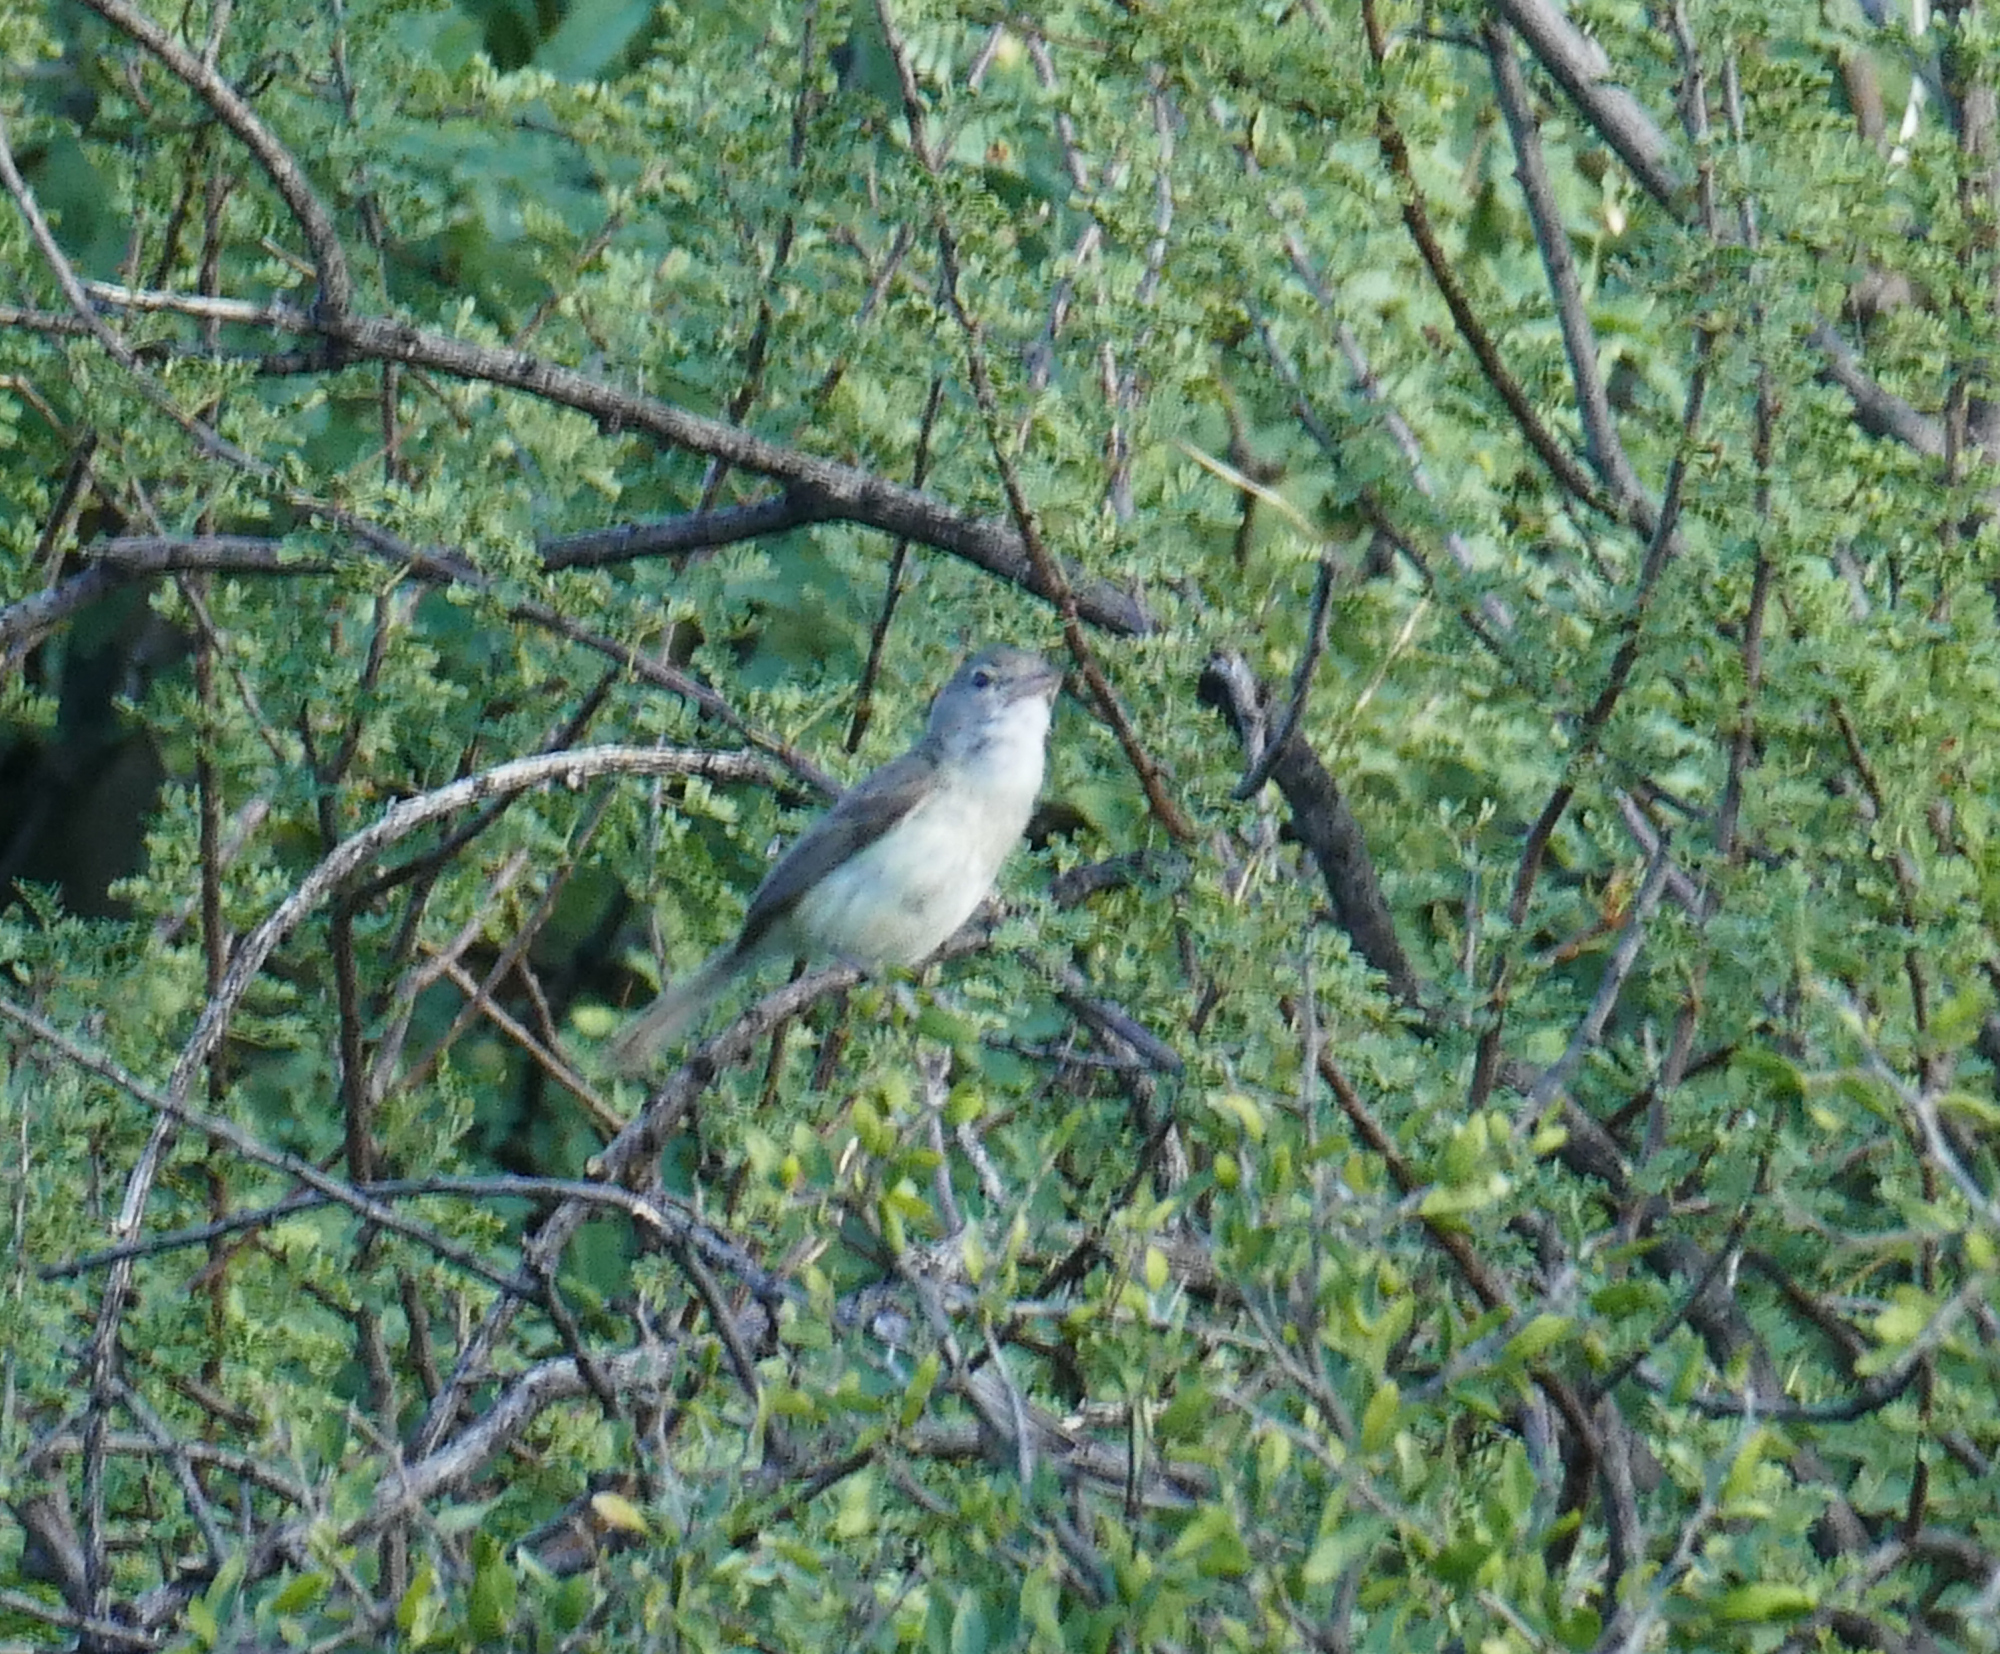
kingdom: Animalia
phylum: Chordata
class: Aves
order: Passeriformes
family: Vireonidae
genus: Vireo
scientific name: Vireo bellii
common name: Bell's vireo
